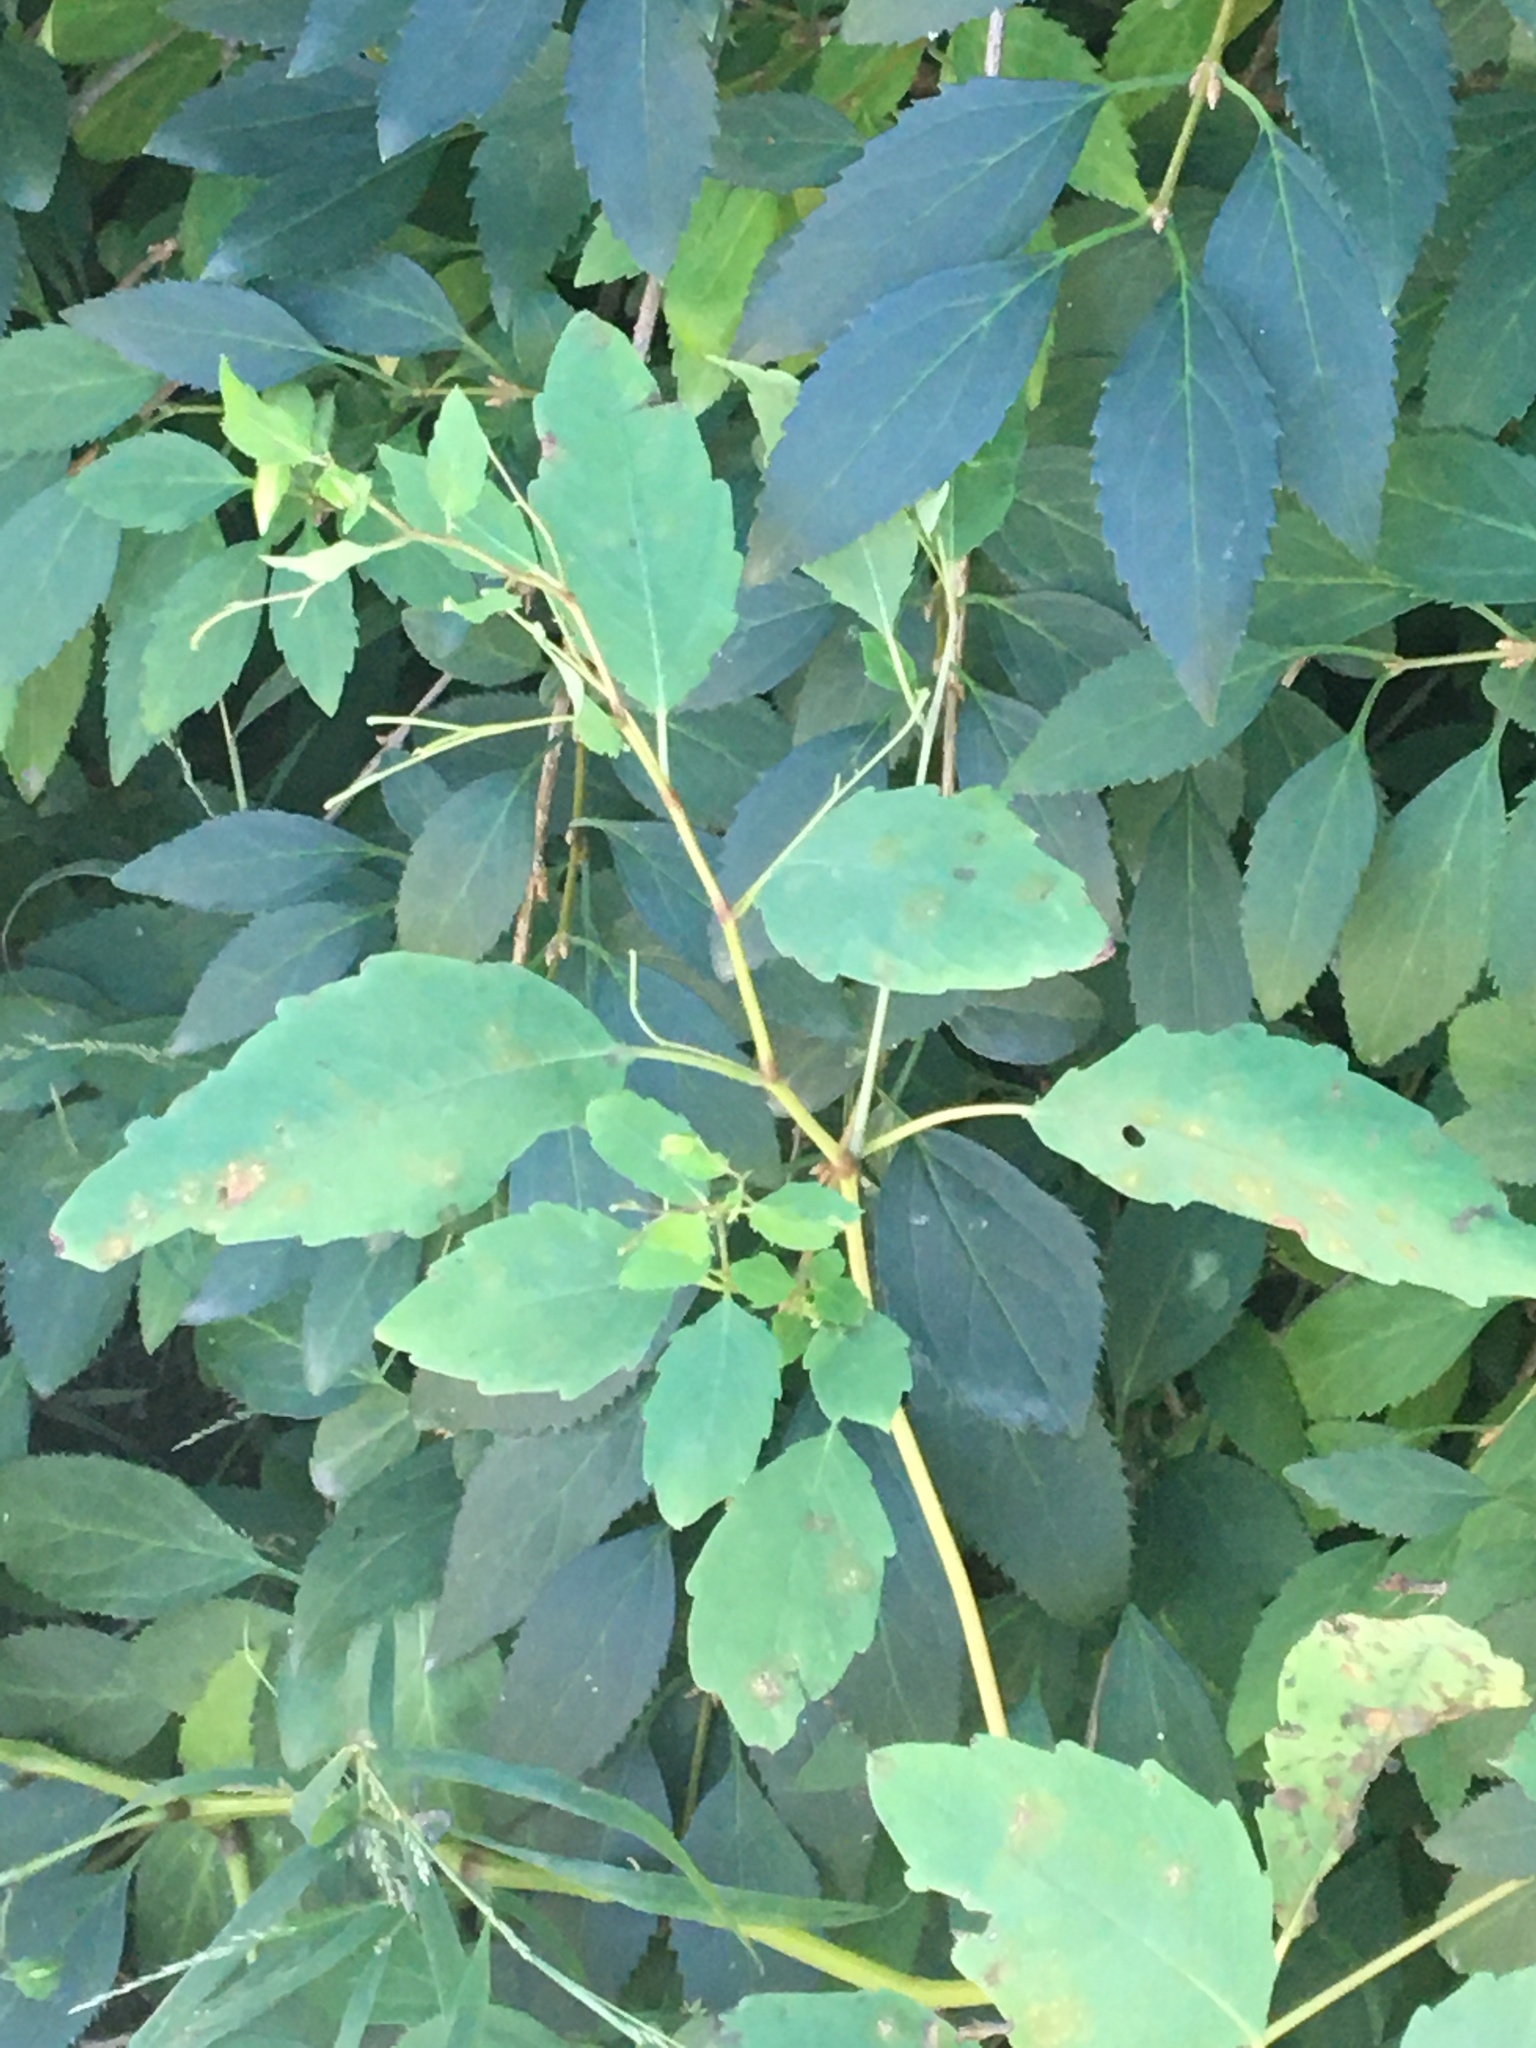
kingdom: Plantae
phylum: Tracheophyta
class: Magnoliopsida
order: Ericales
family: Balsaminaceae
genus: Impatiens
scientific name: Impatiens
